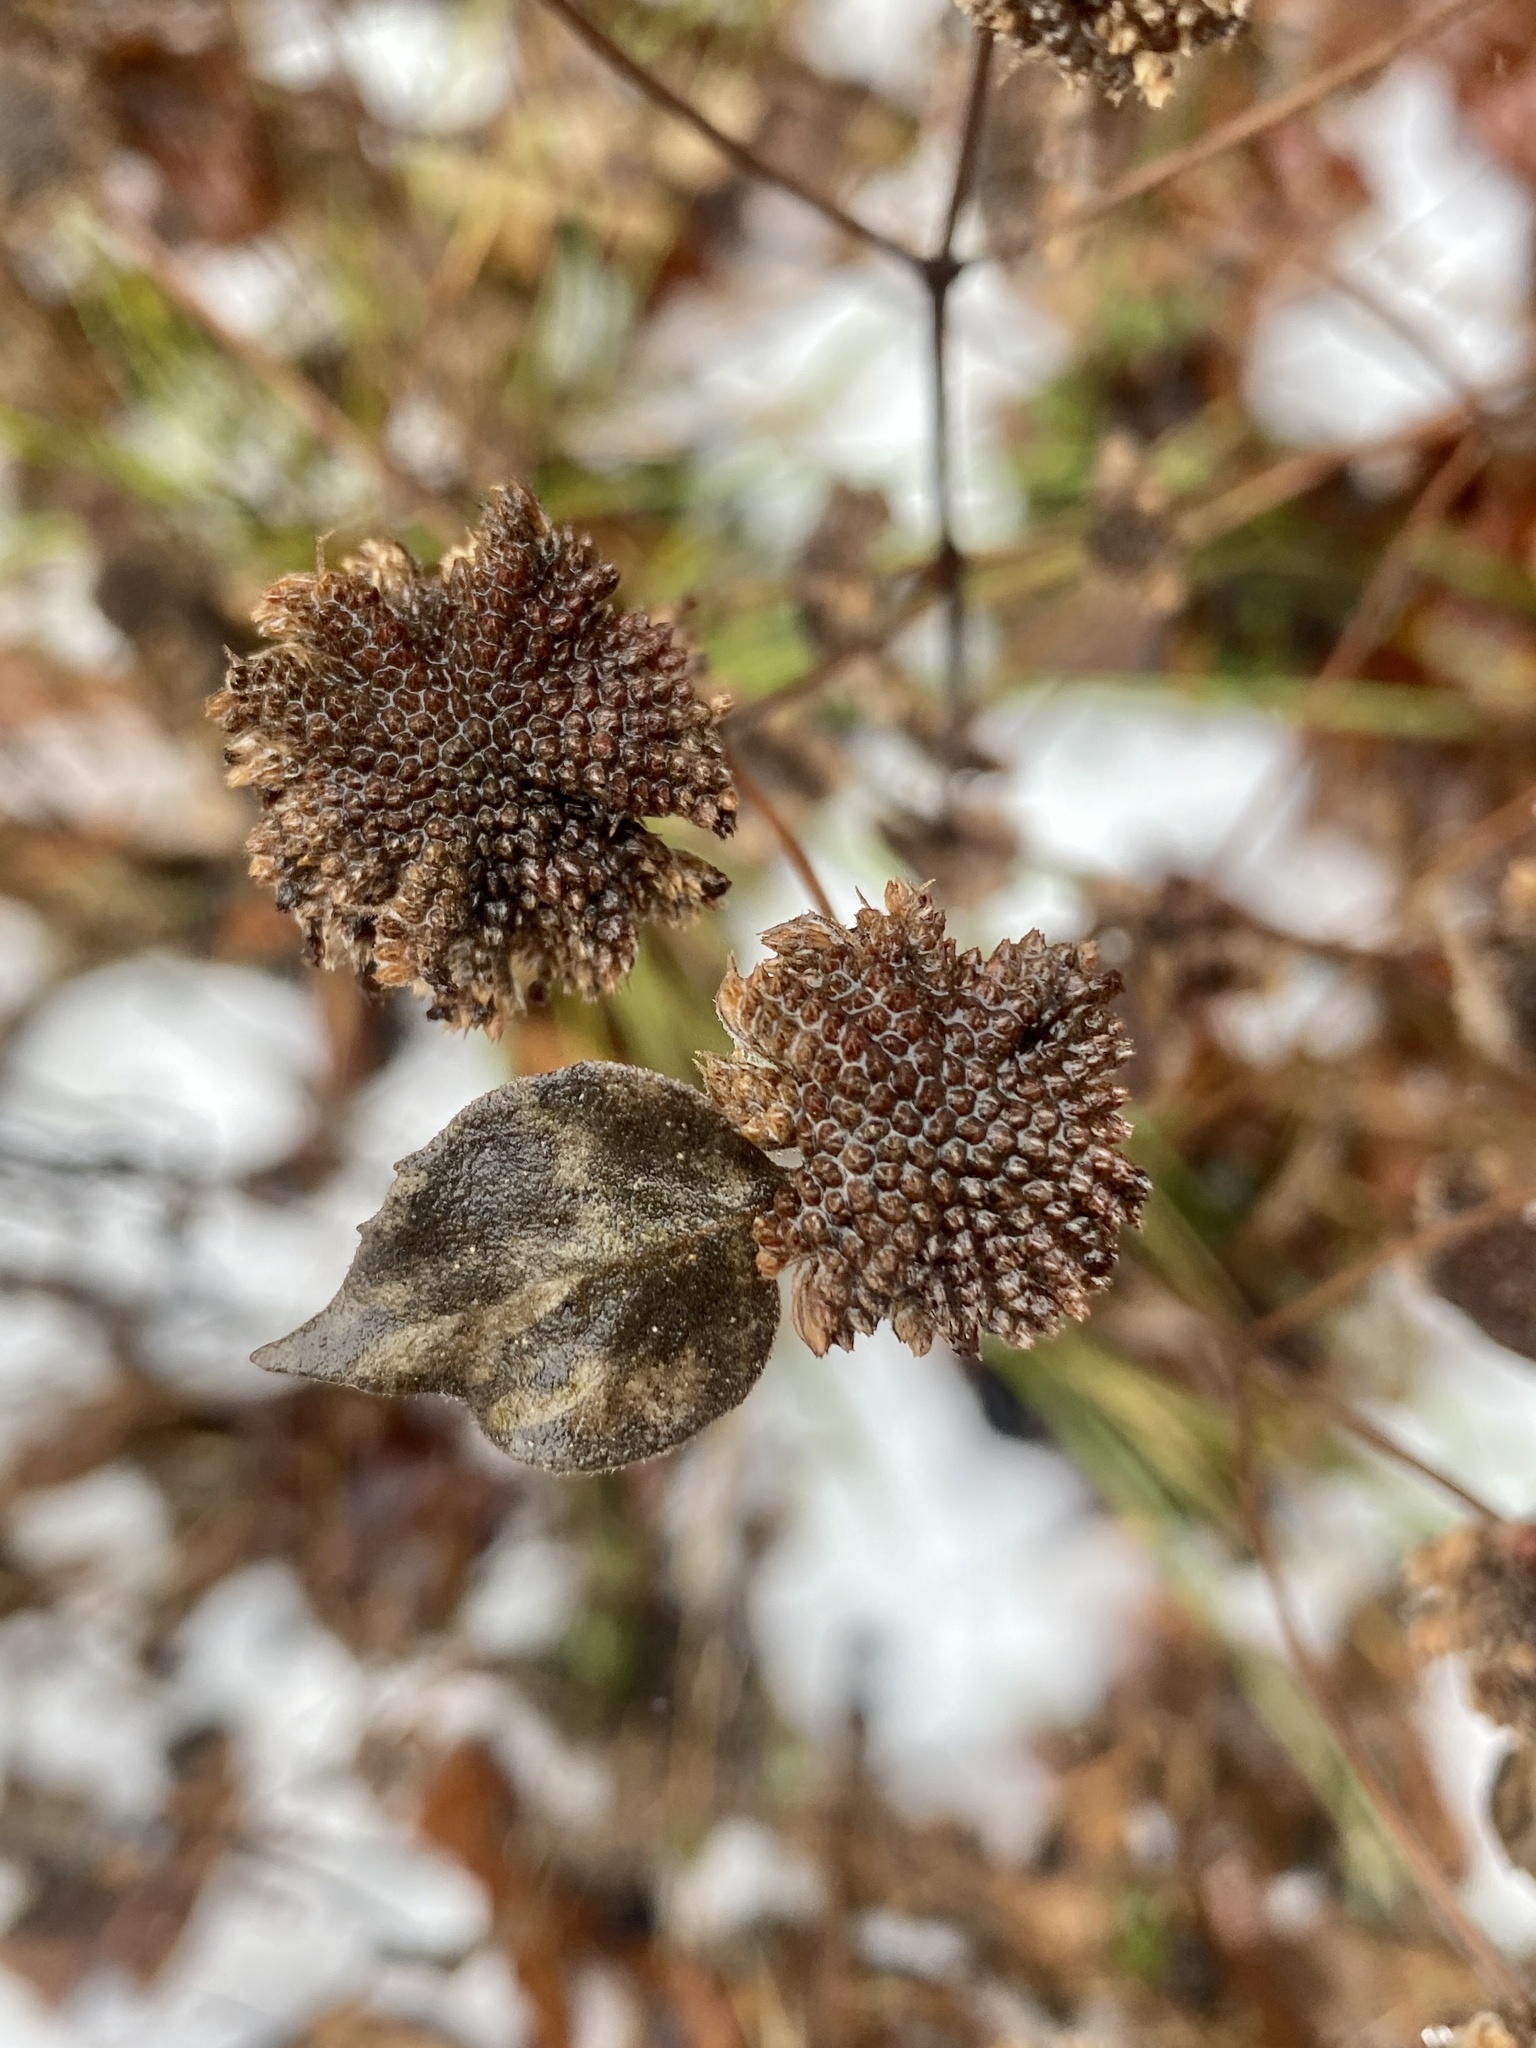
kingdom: Plantae
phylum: Tracheophyta
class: Magnoliopsida
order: Lamiales
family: Lamiaceae
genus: Pycnanthemum
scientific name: Pycnanthemum muticum
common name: Blunt mountain-mint
